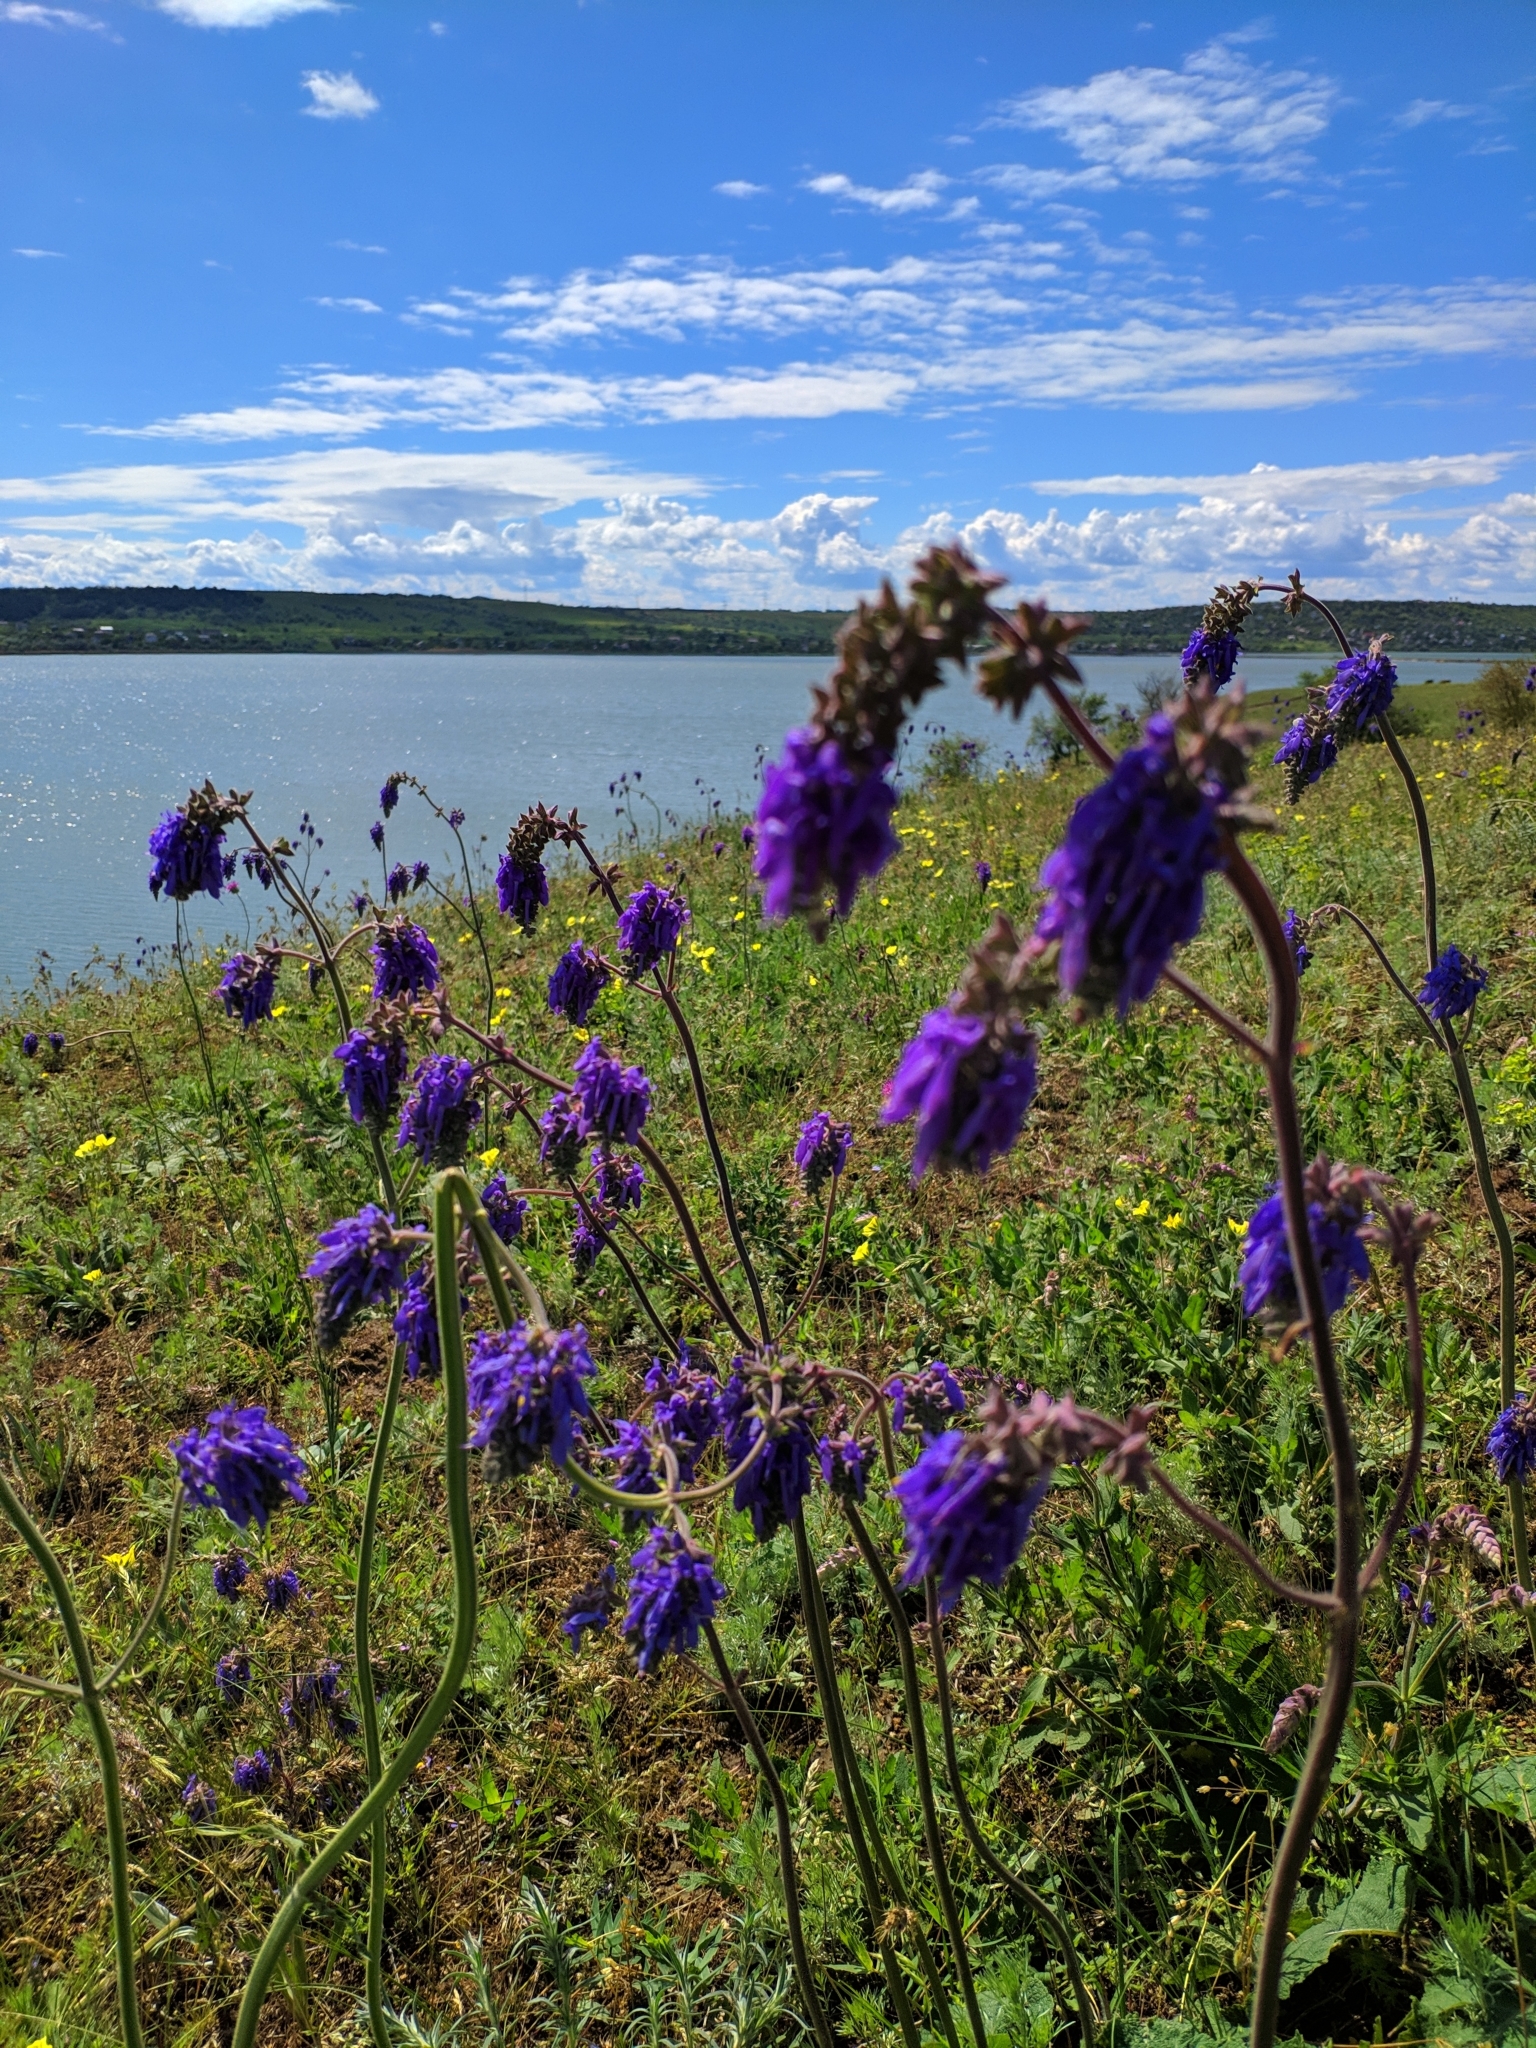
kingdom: Plantae
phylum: Tracheophyta
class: Magnoliopsida
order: Lamiales
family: Lamiaceae
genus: Salvia
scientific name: Salvia nutans
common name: Nodding sage
